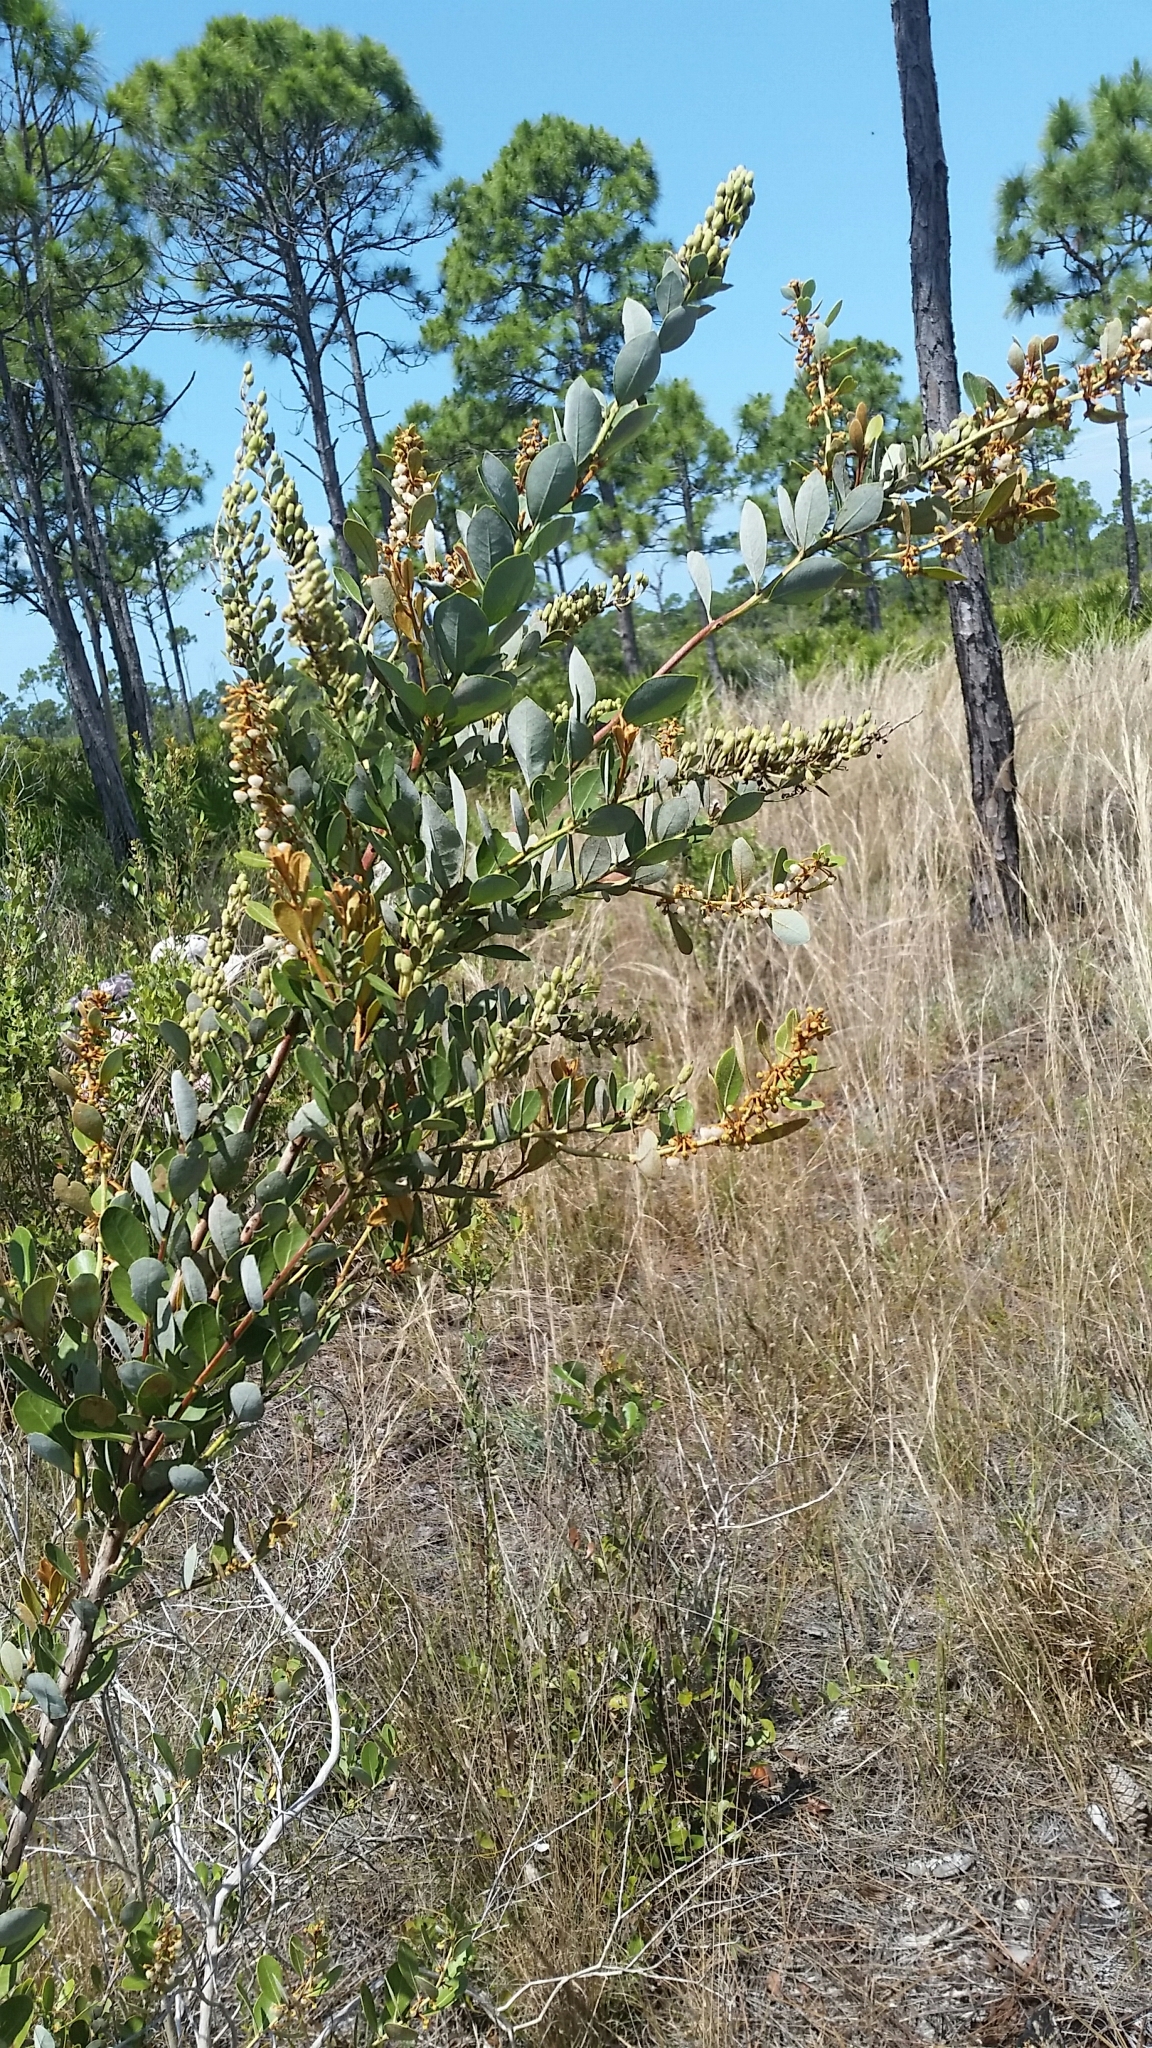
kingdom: Plantae
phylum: Tracheophyta
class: Magnoliopsida
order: Ericales
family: Ericaceae
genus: Lyonia
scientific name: Lyonia fruticosa
